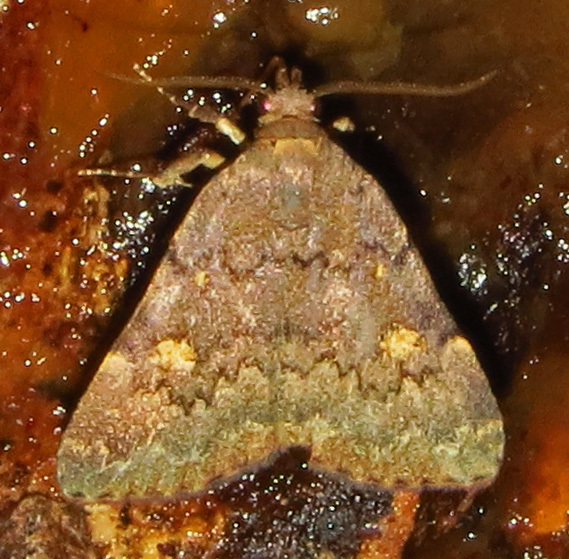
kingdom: Animalia
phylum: Arthropoda
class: Insecta
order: Lepidoptera
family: Erebidae
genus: Idia
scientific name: Idia aemula
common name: Common idia moth
